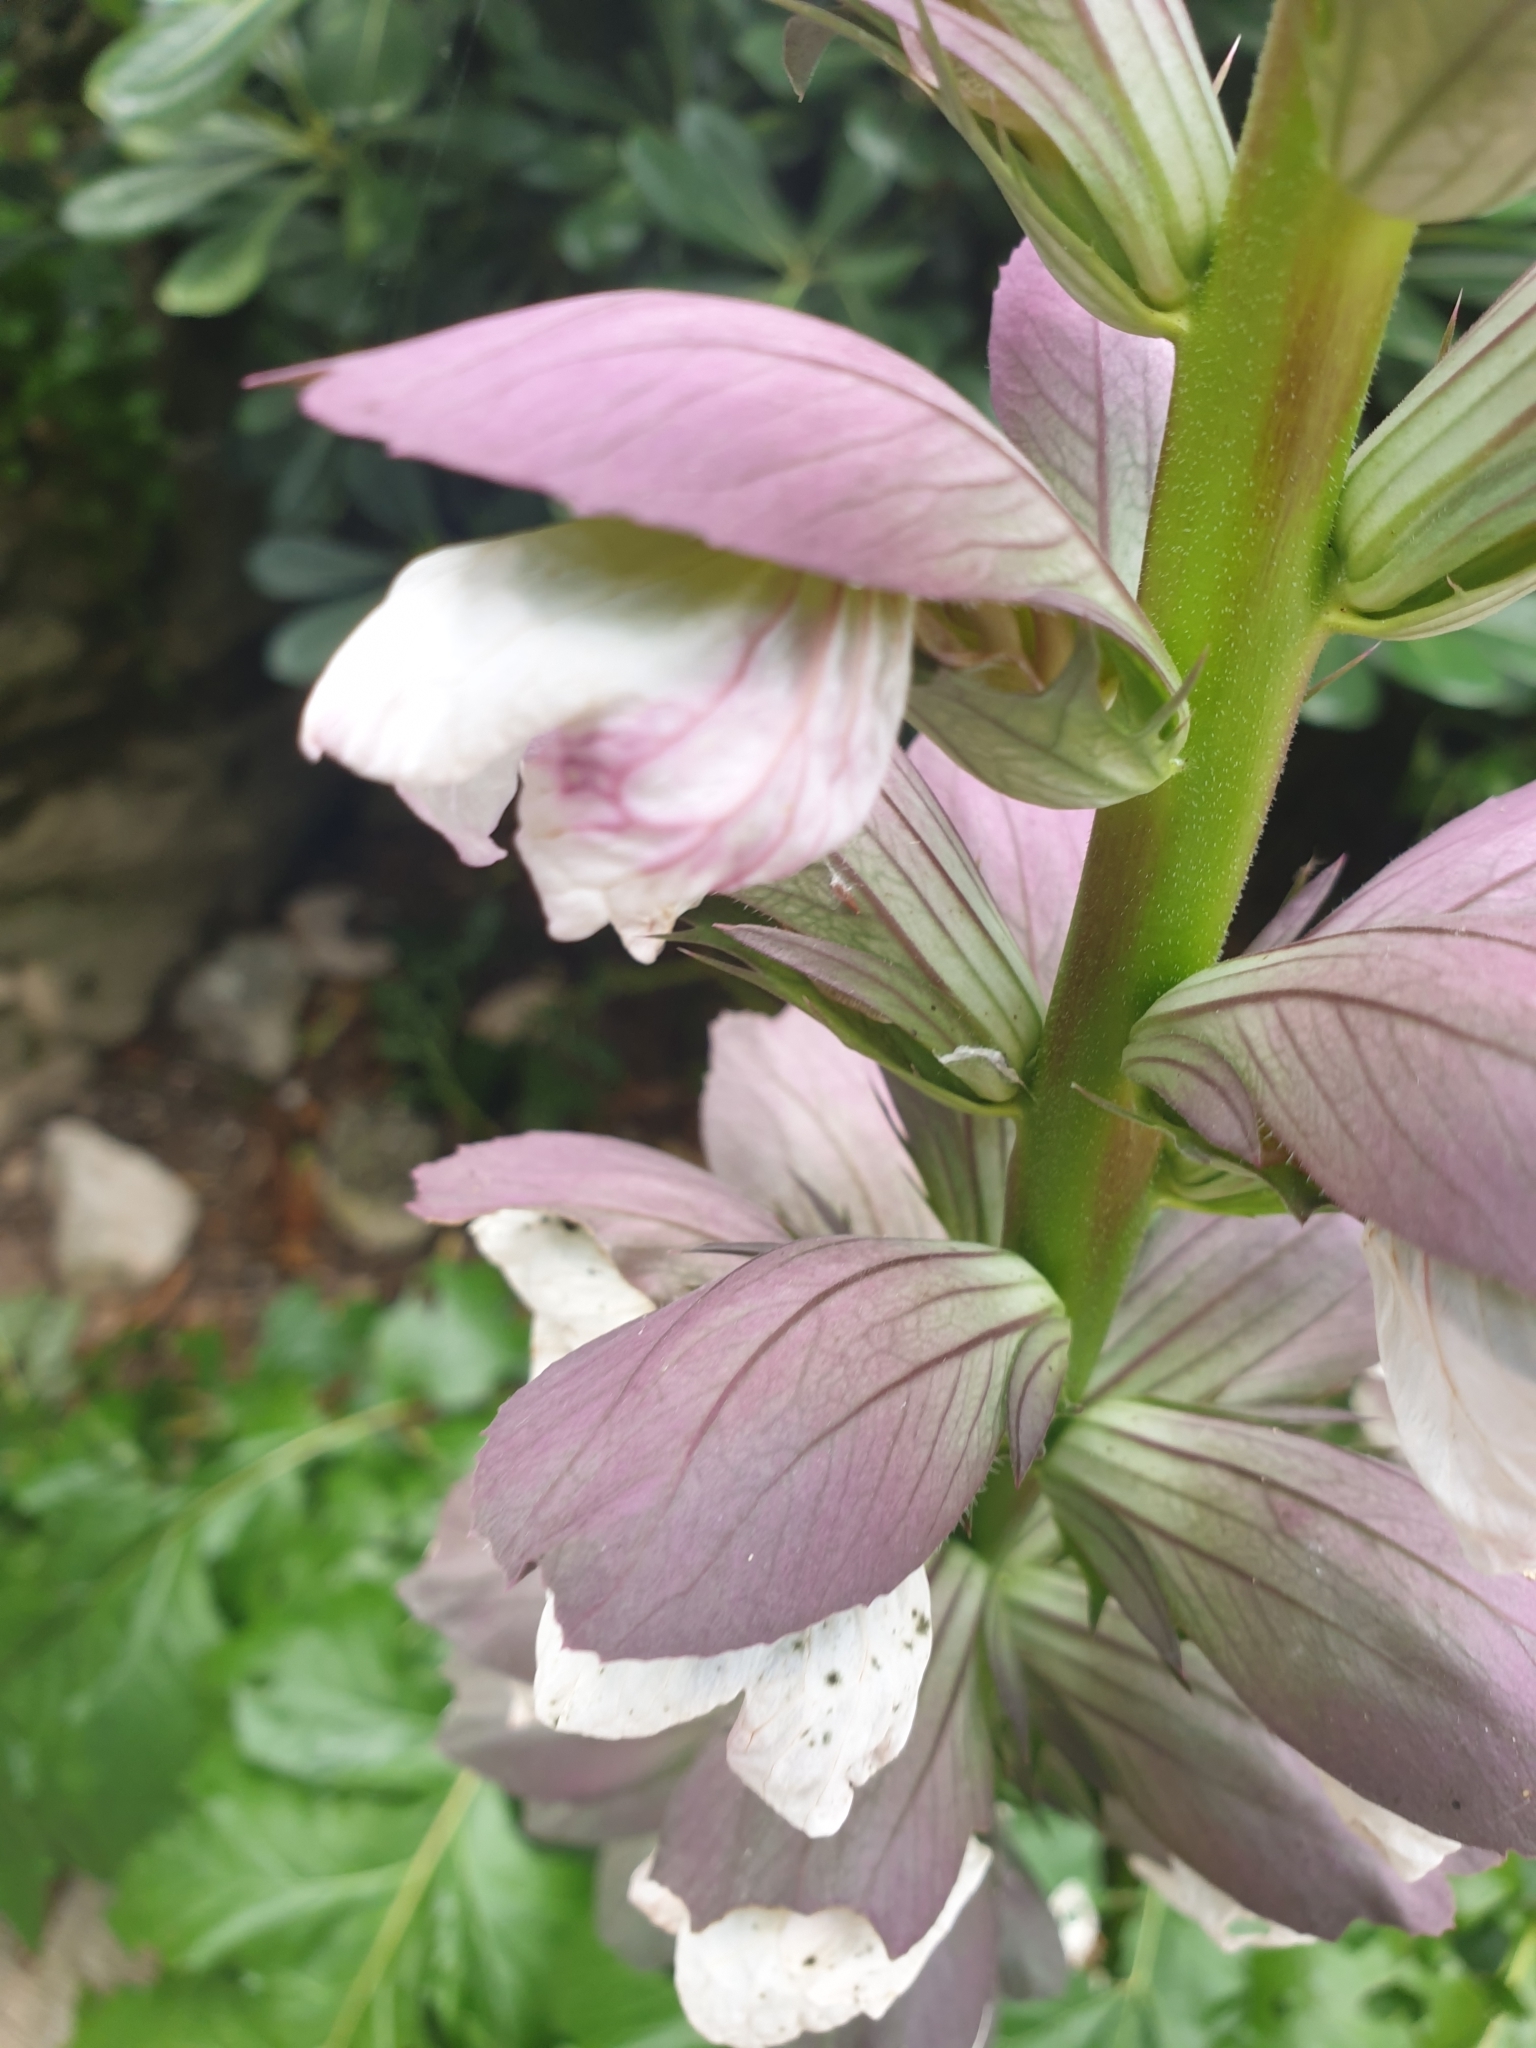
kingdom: Plantae
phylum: Tracheophyta
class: Magnoliopsida
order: Lamiales
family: Acanthaceae
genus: Acanthus
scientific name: Acanthus mollis
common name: Bear's-breech
